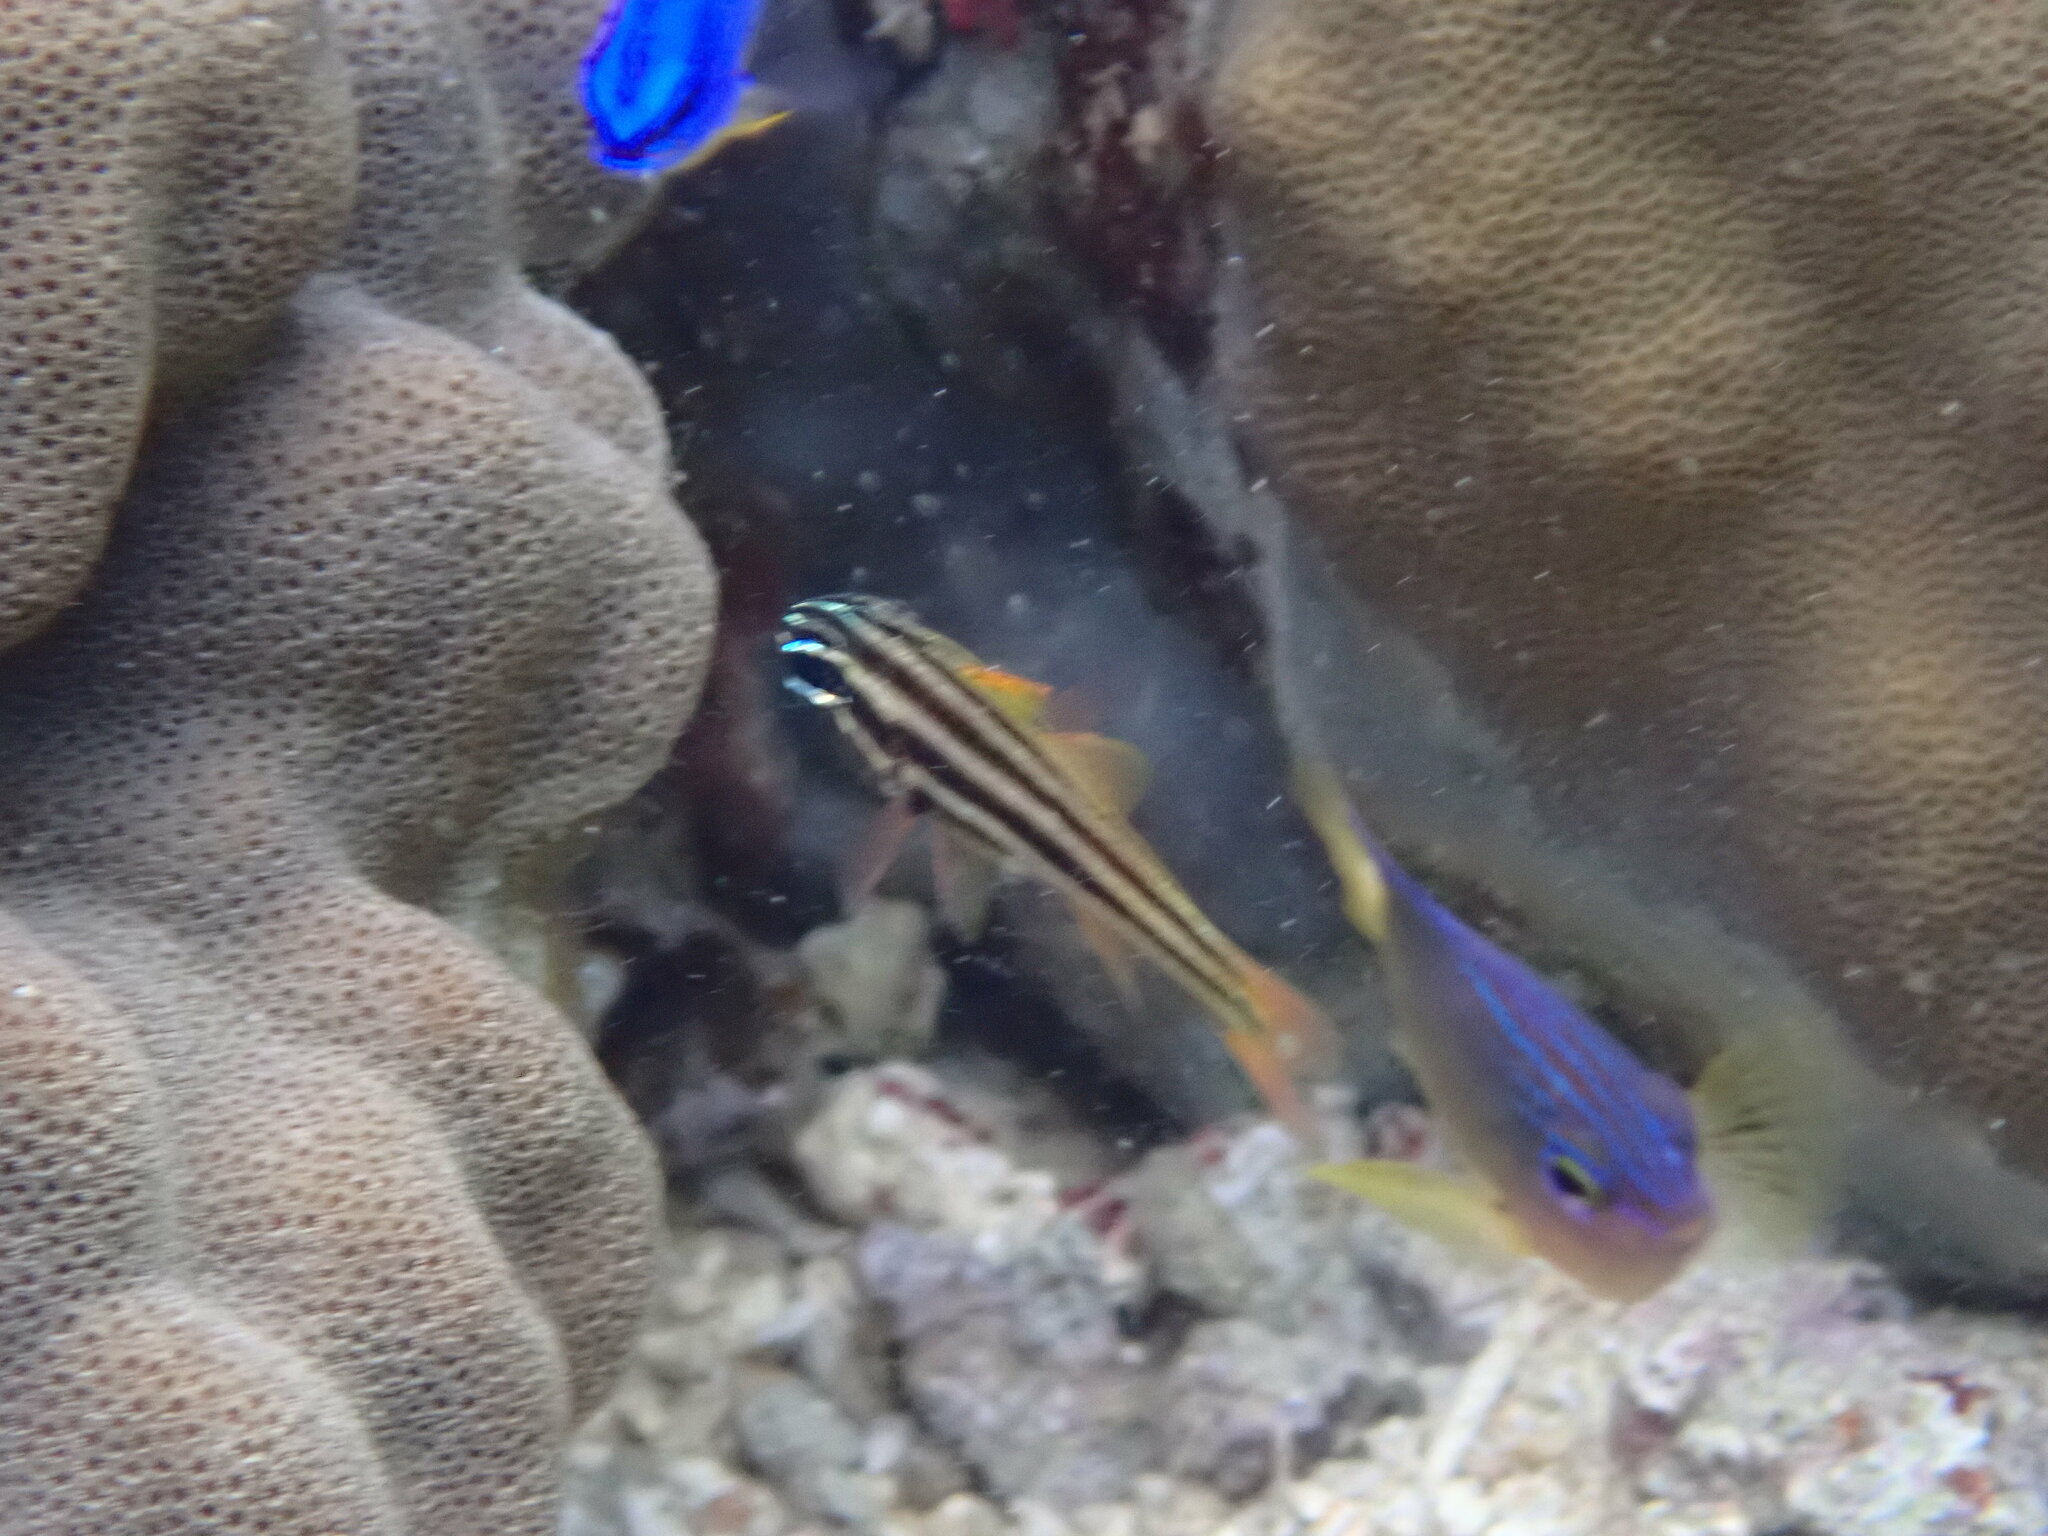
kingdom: Animalia
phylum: Chordata
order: Perciformes
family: Apogonidae
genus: Ostorhinchus
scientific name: Ostorhinchus novemfasciatus
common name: Seven-striped cardinalfish
